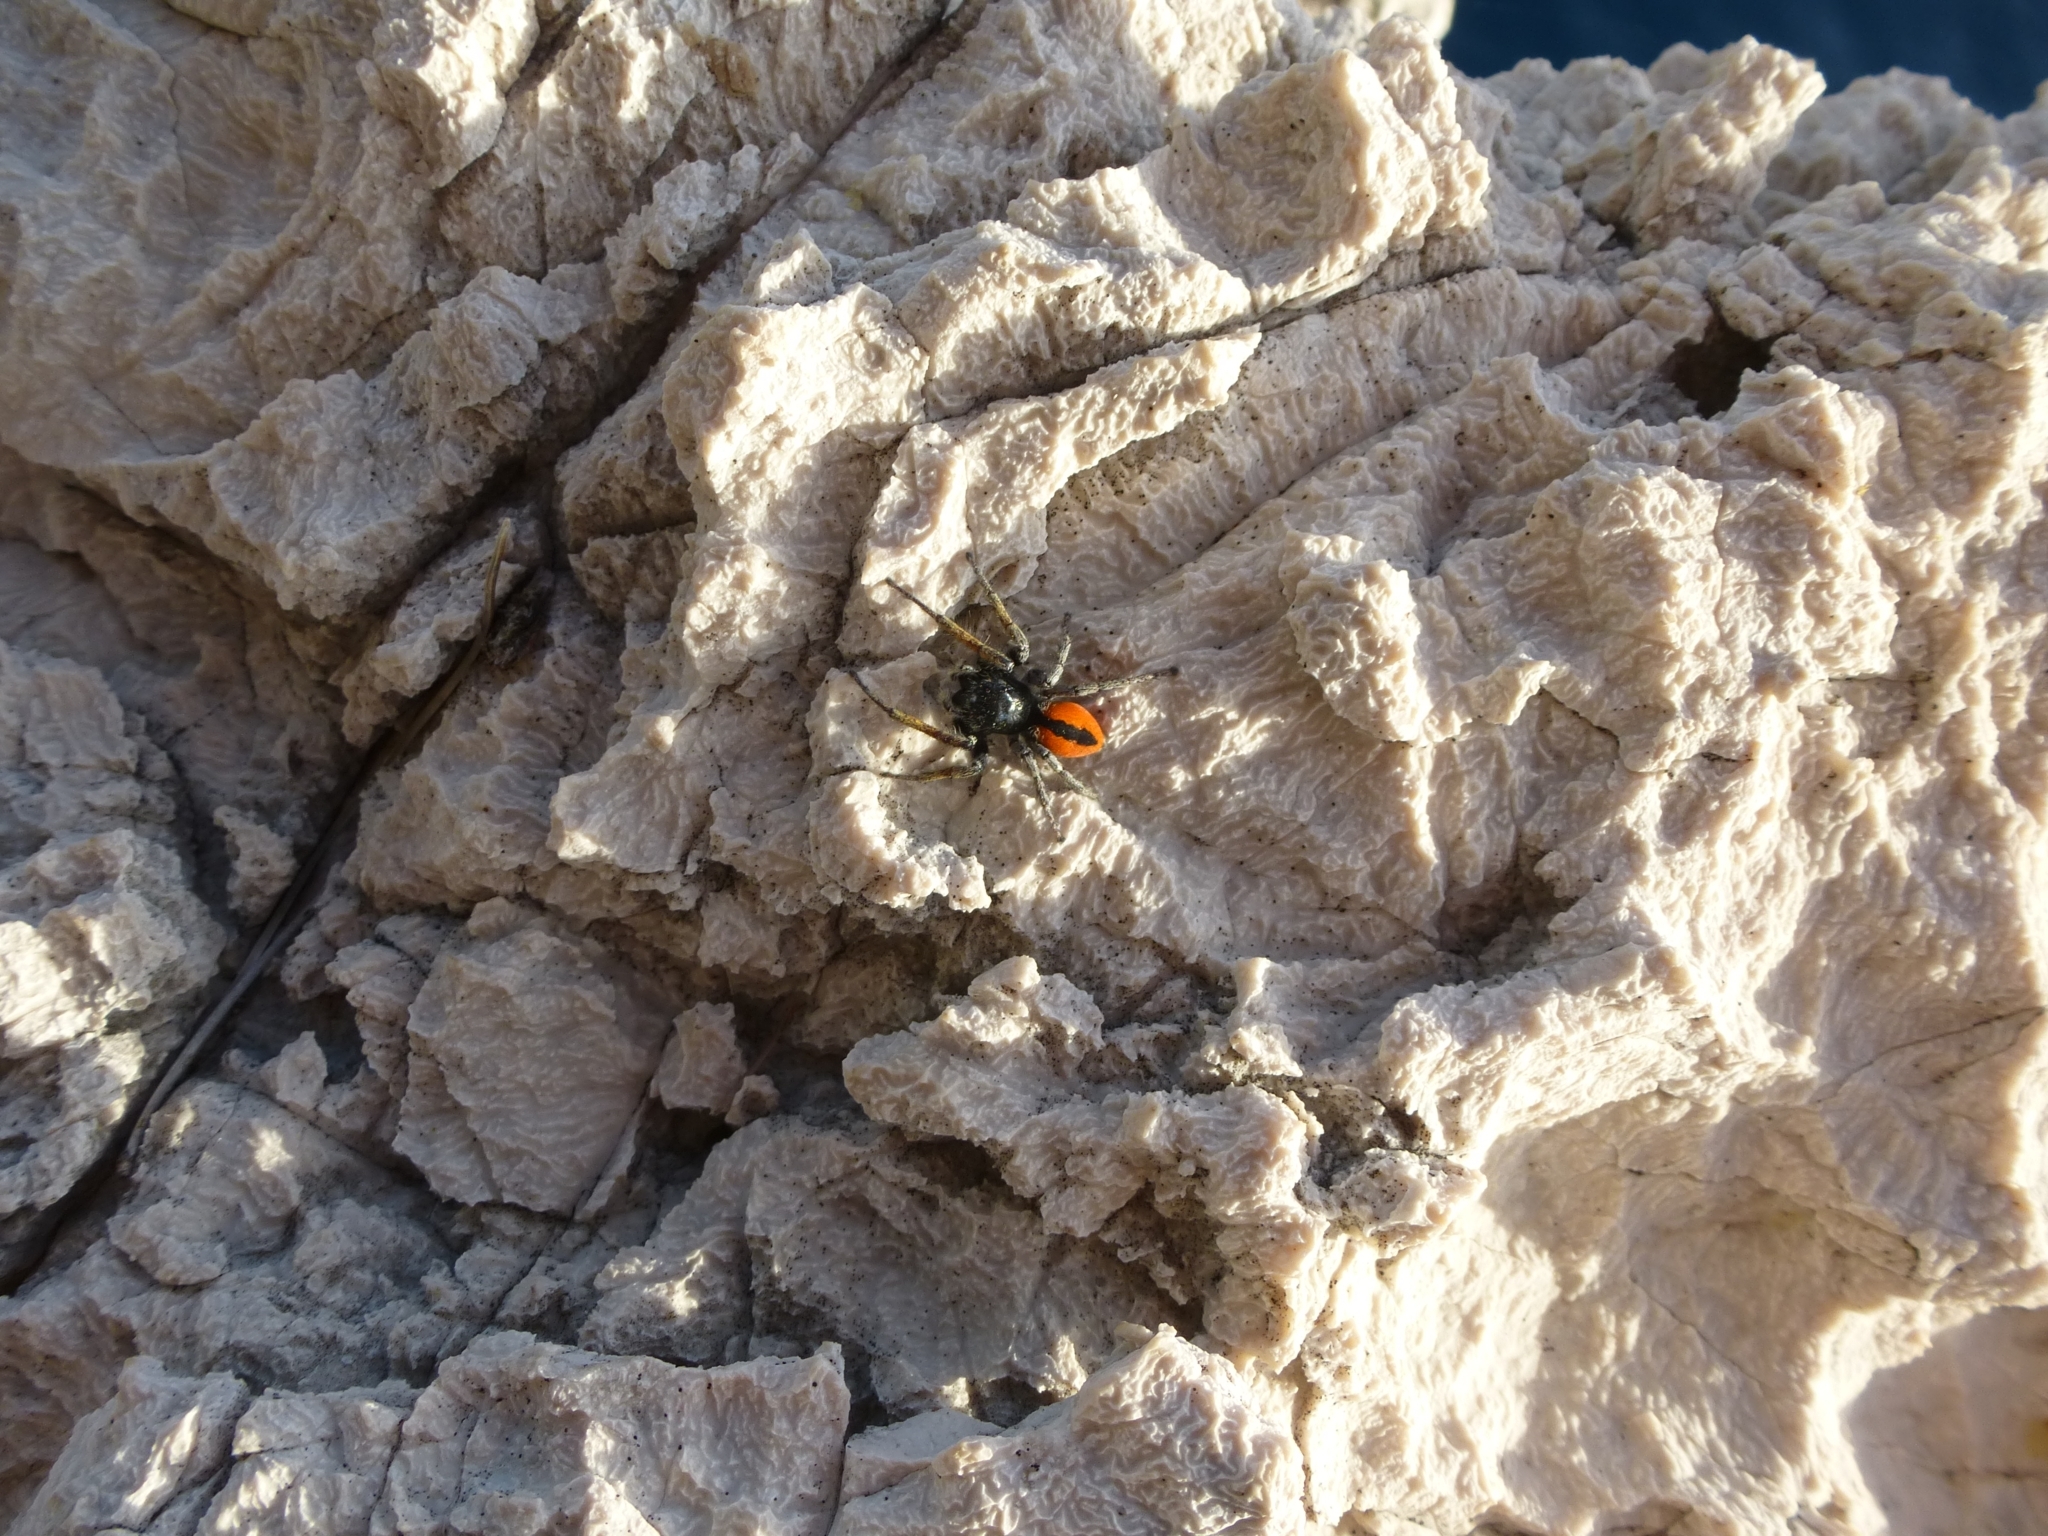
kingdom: Animalia
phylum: Arthropoda
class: Arachnida
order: Araneae
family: Salticidae
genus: Philaeus
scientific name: Philaeus chrysops
